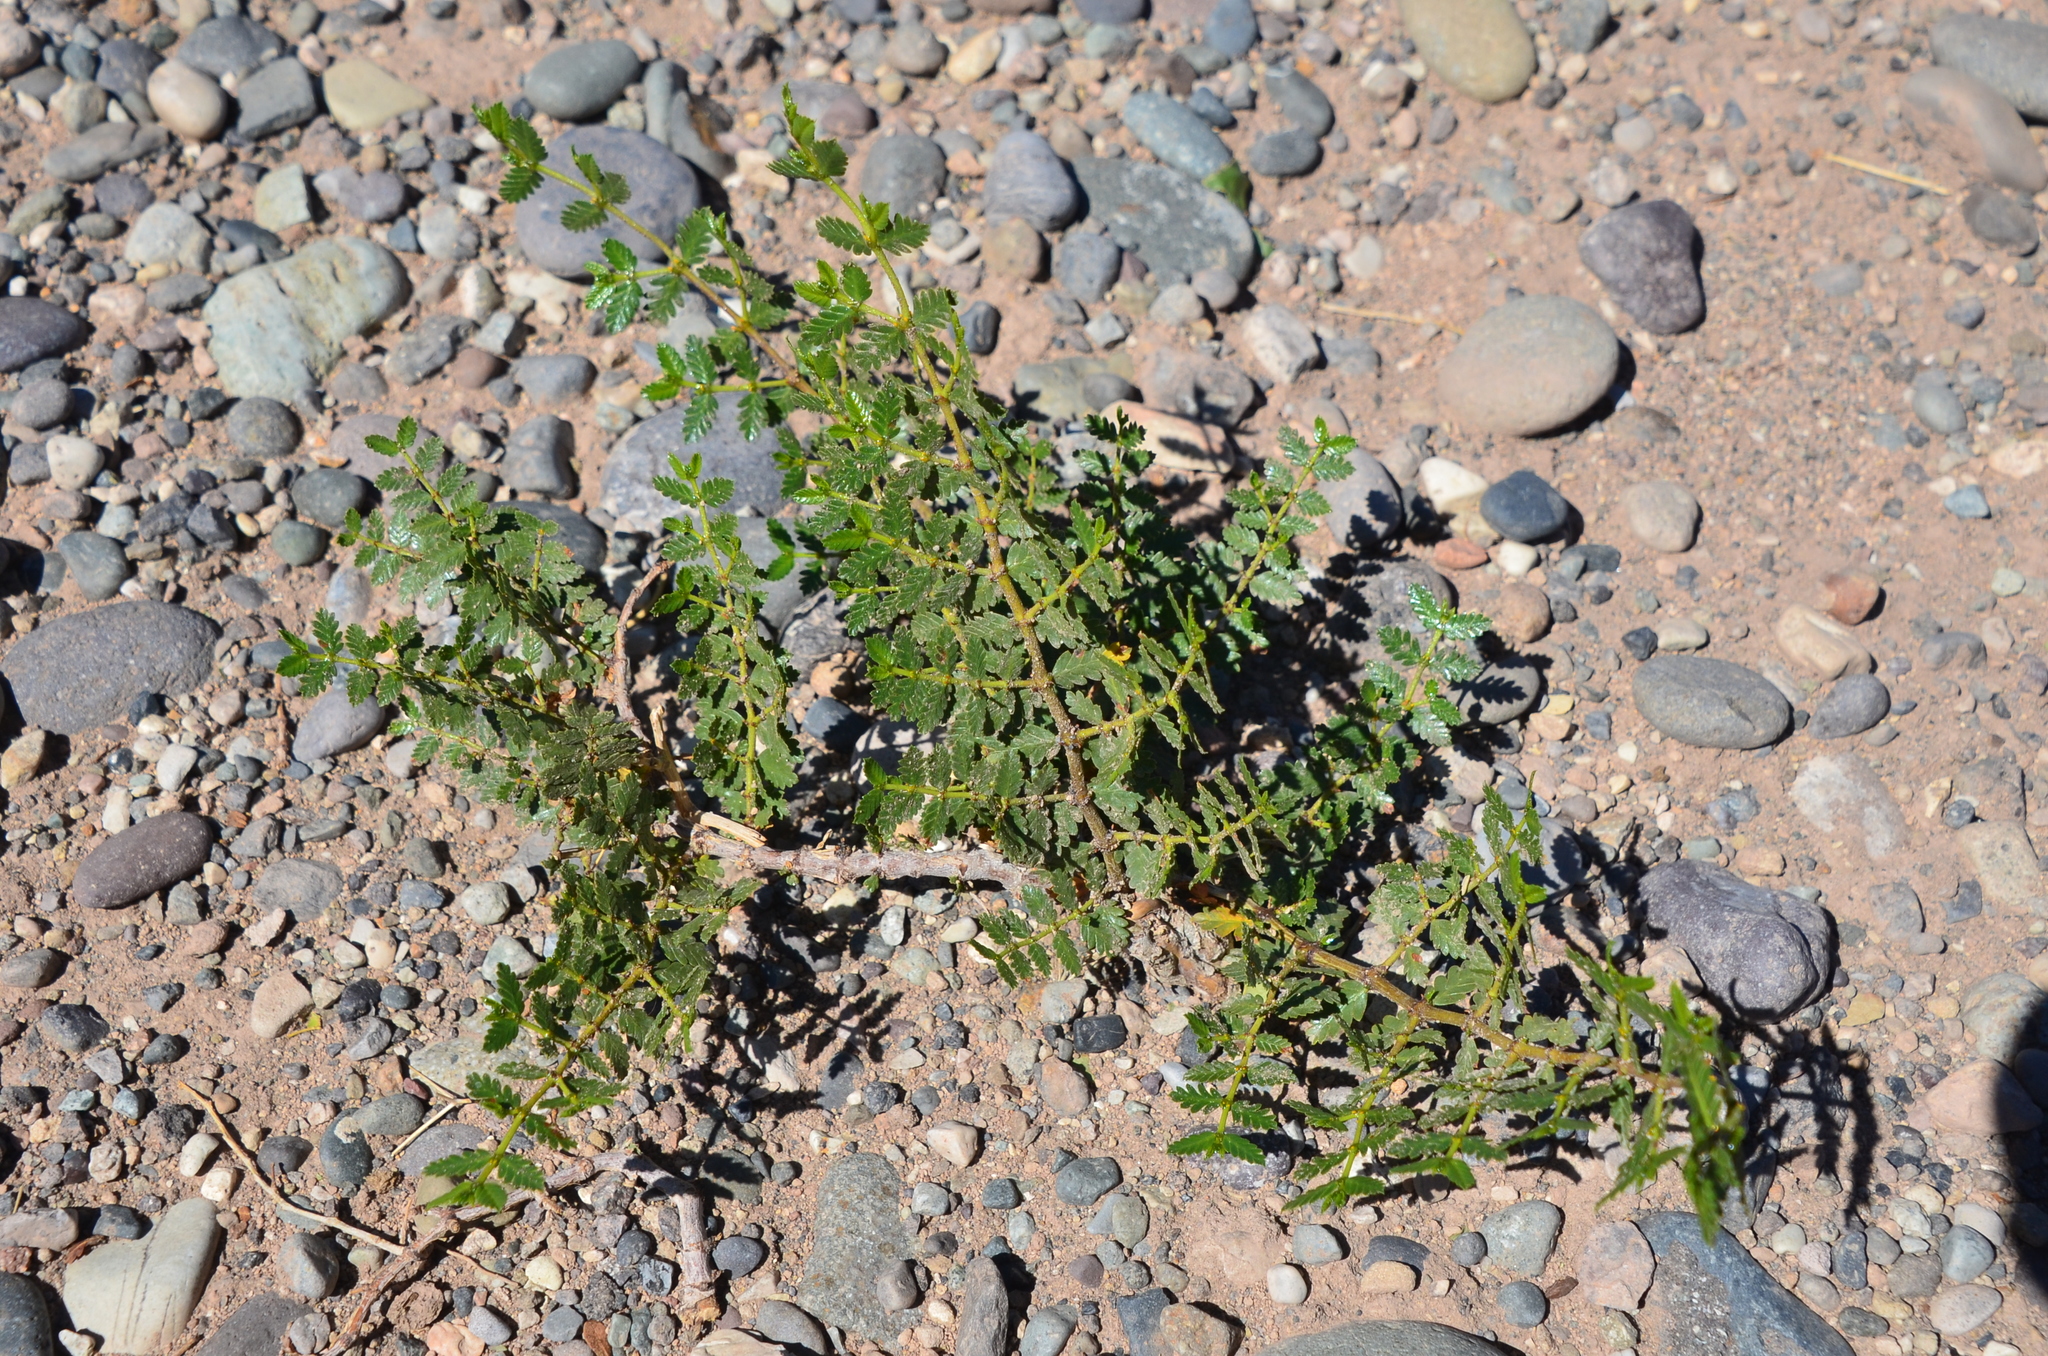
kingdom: Plantae
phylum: Tracheophyta
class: Magnoliopsida
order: Zygophyllales
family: Zygophyllaceae
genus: Larrea
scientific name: Larrea nitida
